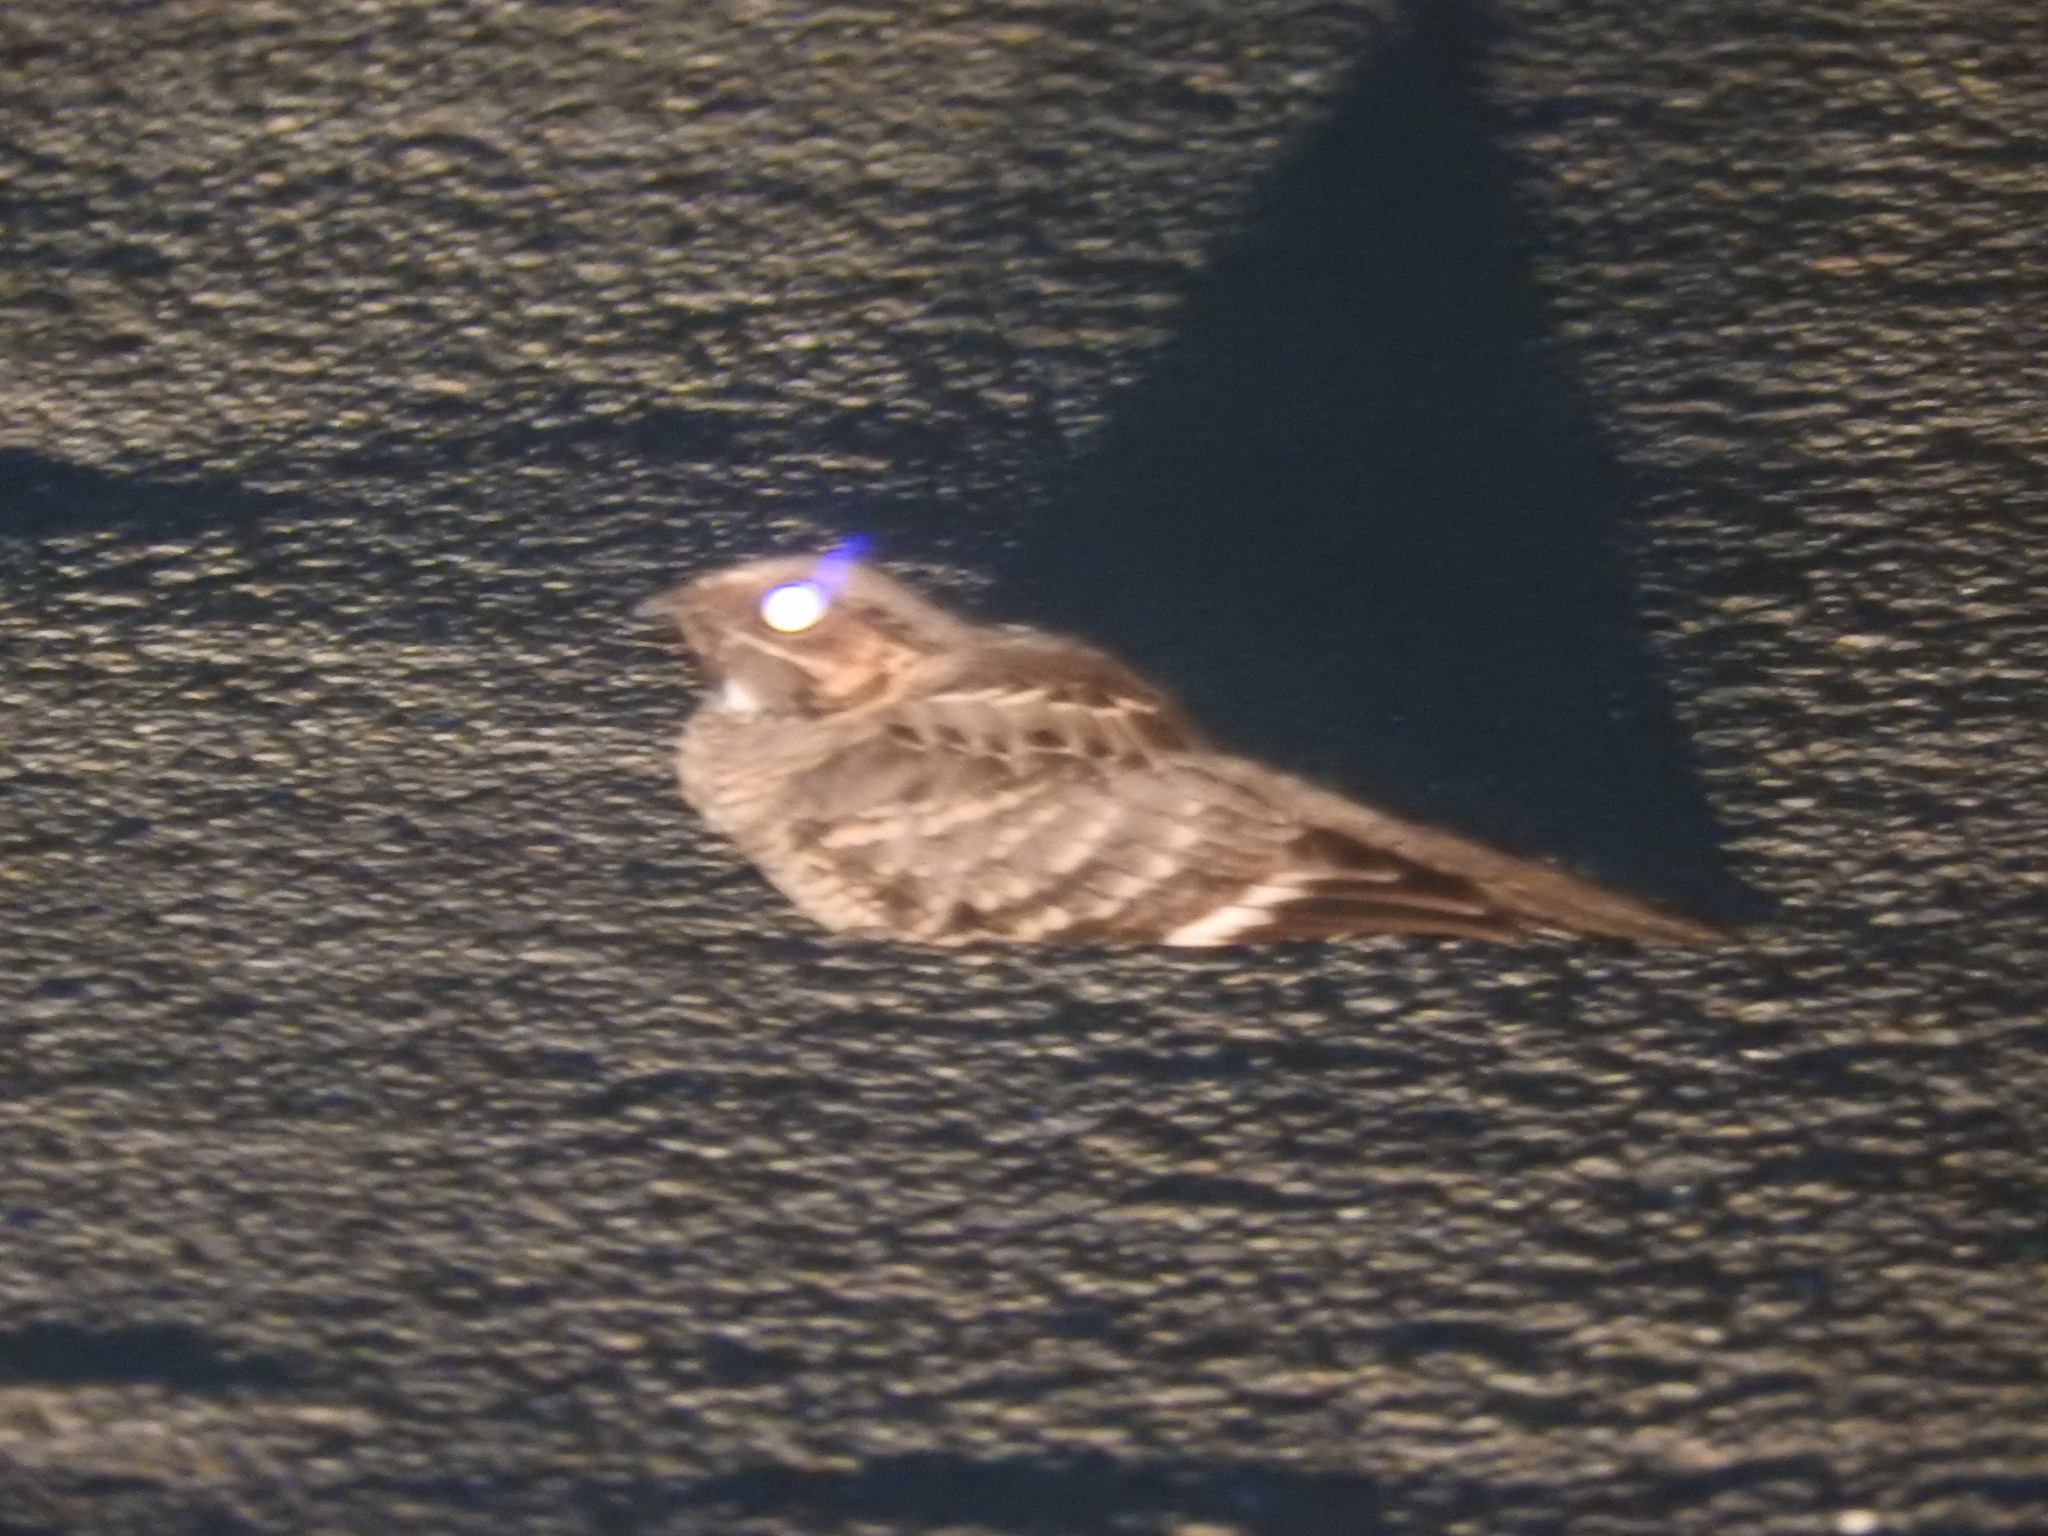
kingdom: Animalia
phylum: Chordata
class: Aves
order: Caprimulgiformes
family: Caprimulgidae
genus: Nyctidromus
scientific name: Nyctidromus albicollis
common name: Pauraque
